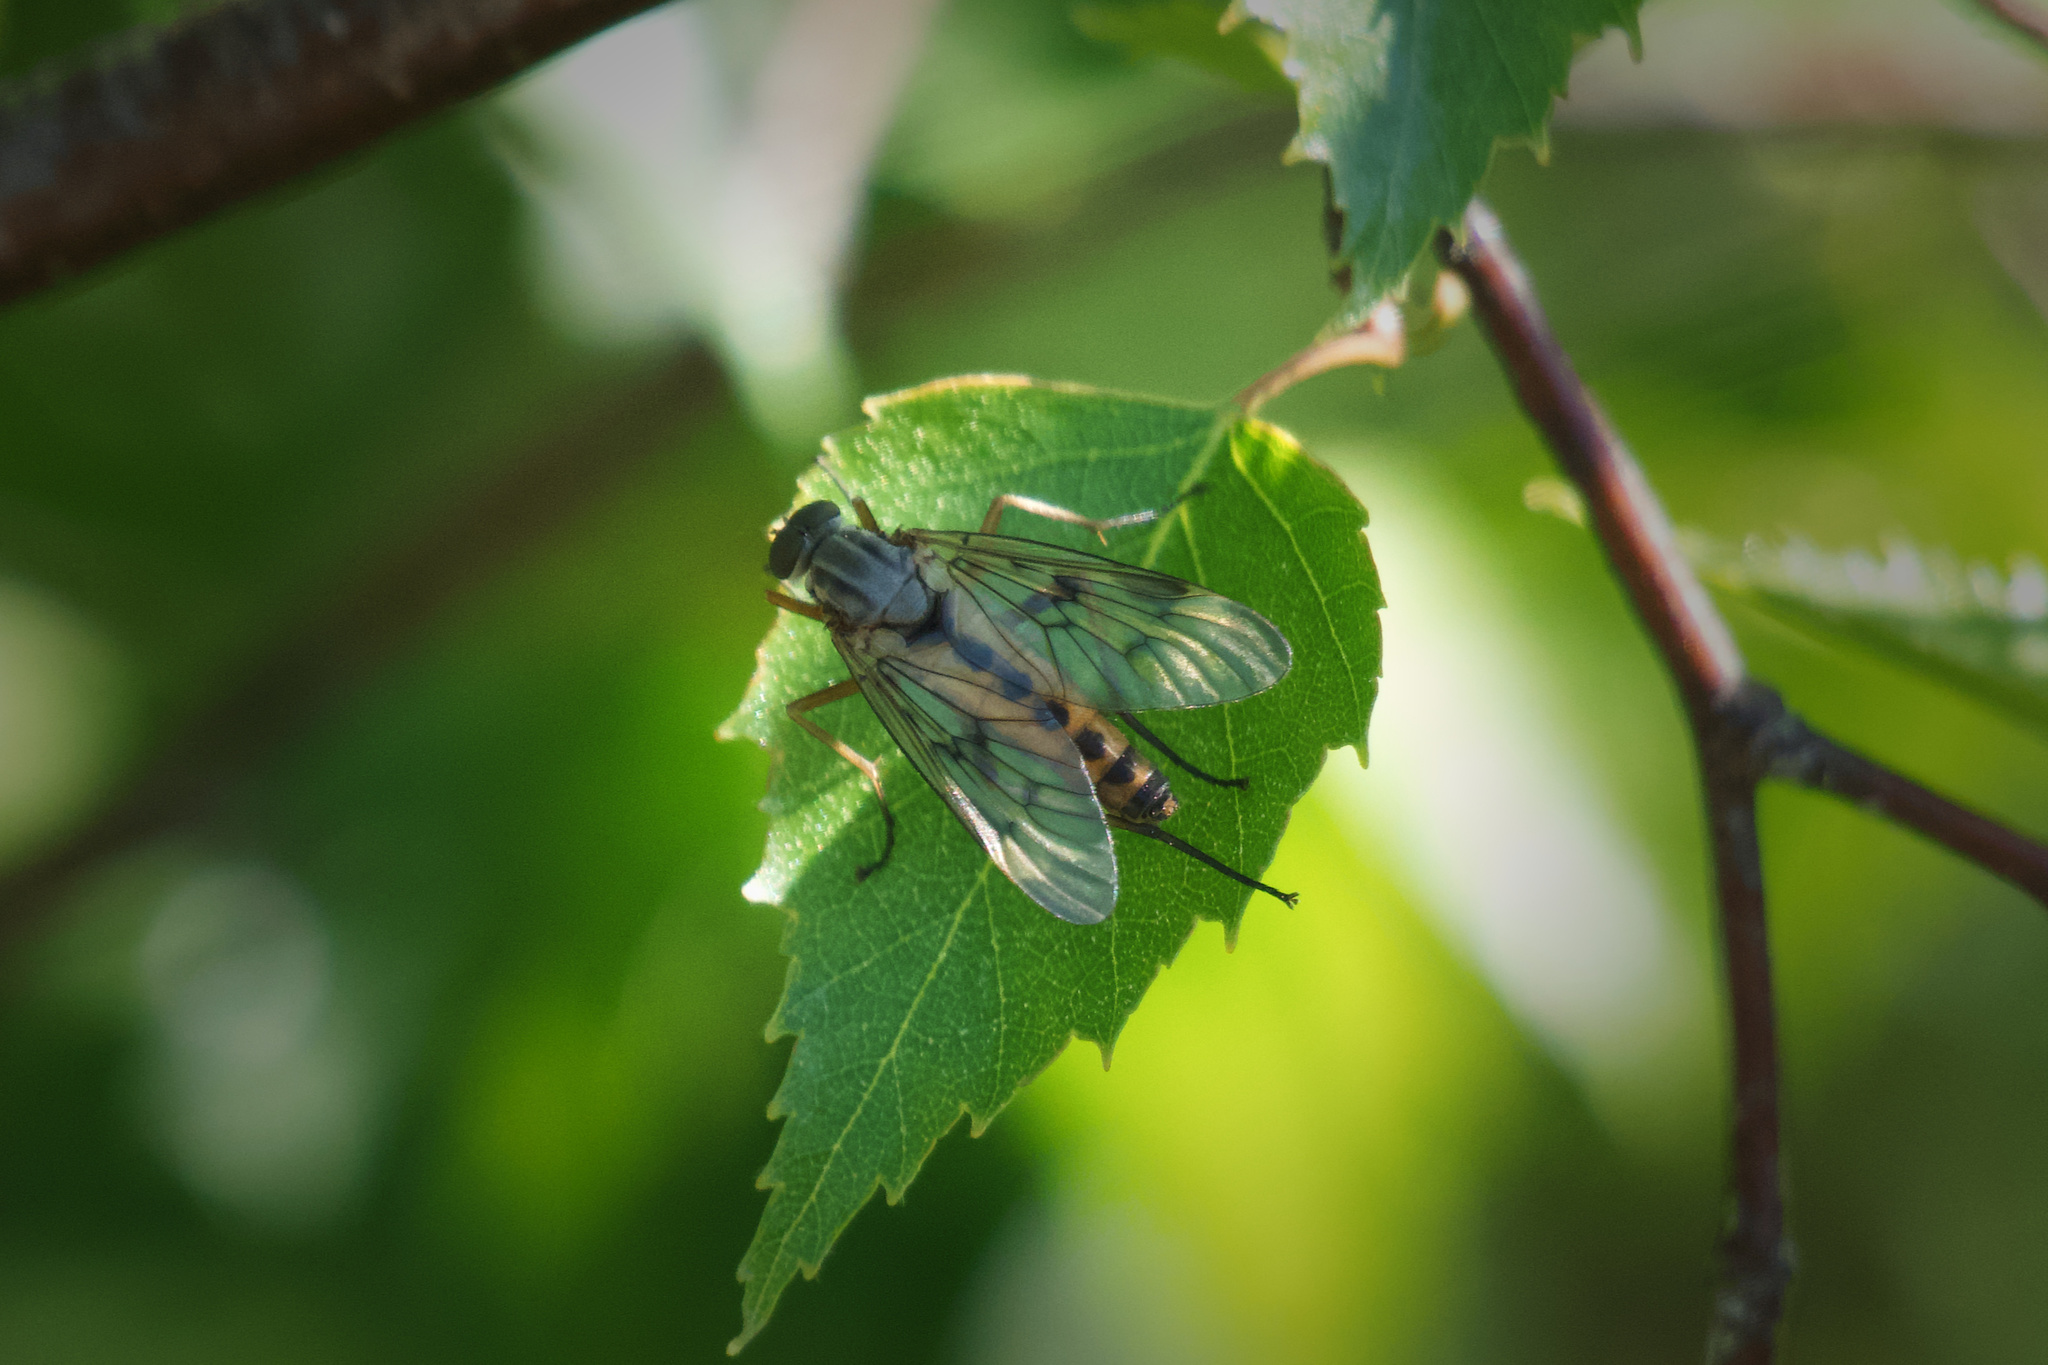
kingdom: Animalia
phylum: Arthropoda
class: Insecta
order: Diptera
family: Rhagionidae
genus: Rhagio
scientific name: Rhagio scolopacea
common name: Downlooker snipefly
